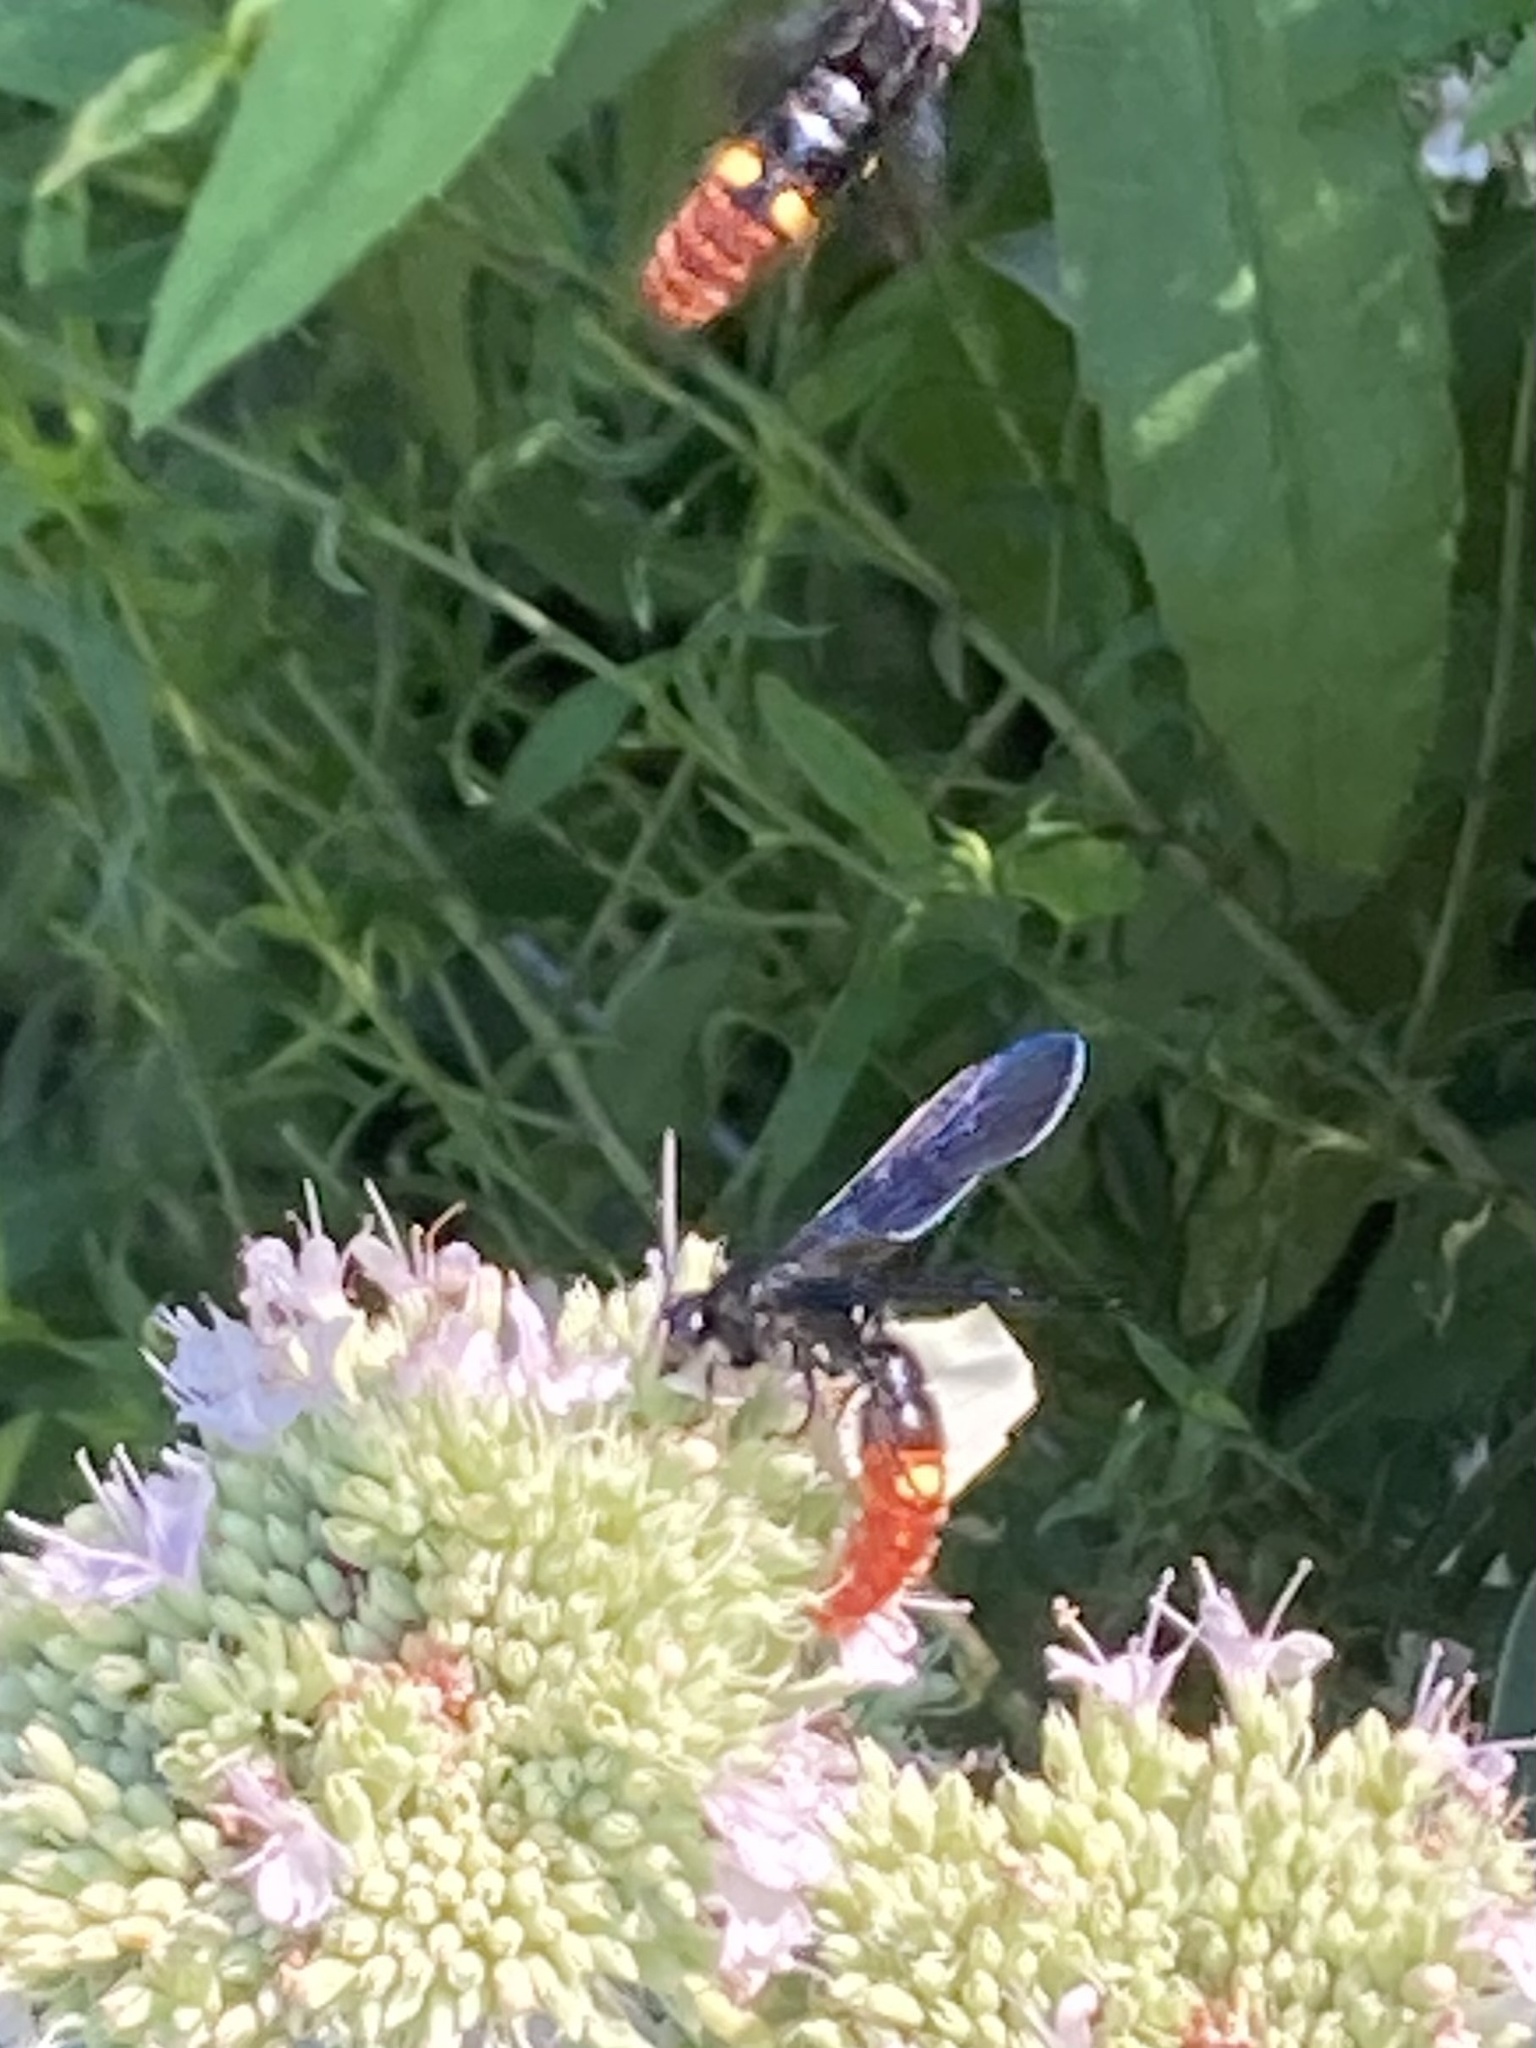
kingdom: Animalia
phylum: Arthropoda
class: Insecta
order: Hymenoptera
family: Scoliidae
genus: Scolia
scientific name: Scolia dubia
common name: Blue-winged scoliid wasp
